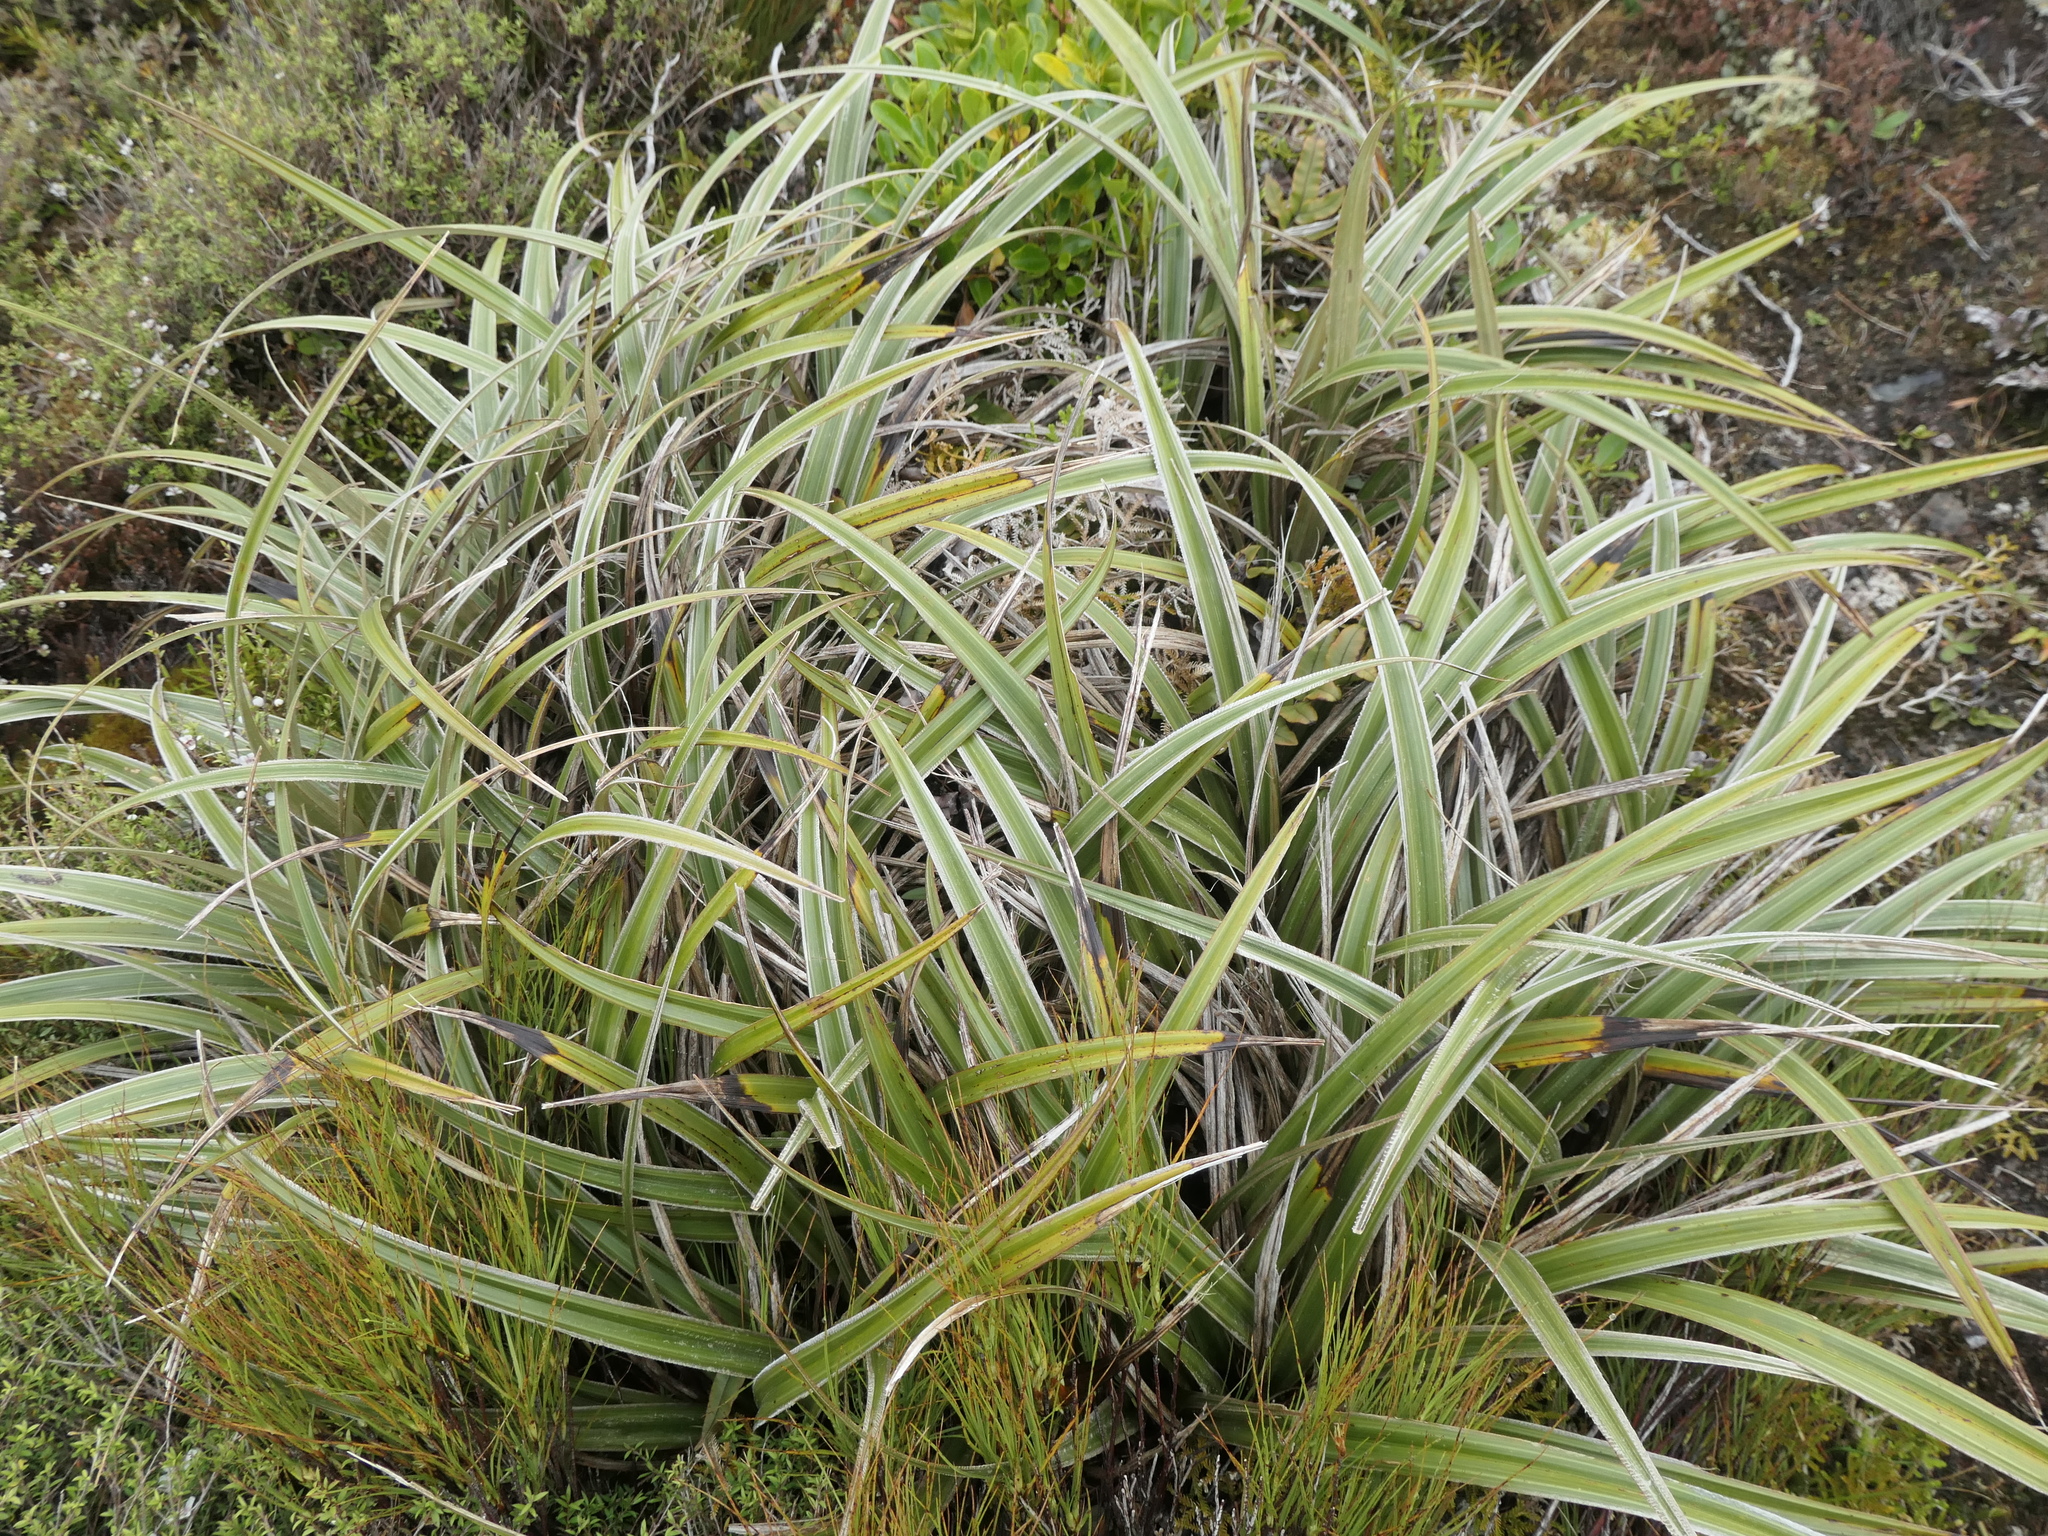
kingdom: Plantae
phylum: Tracheophyta
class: Liliopsida
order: Asparagales
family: Asteliaceae
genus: Astelia
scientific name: Astelia nervosa
